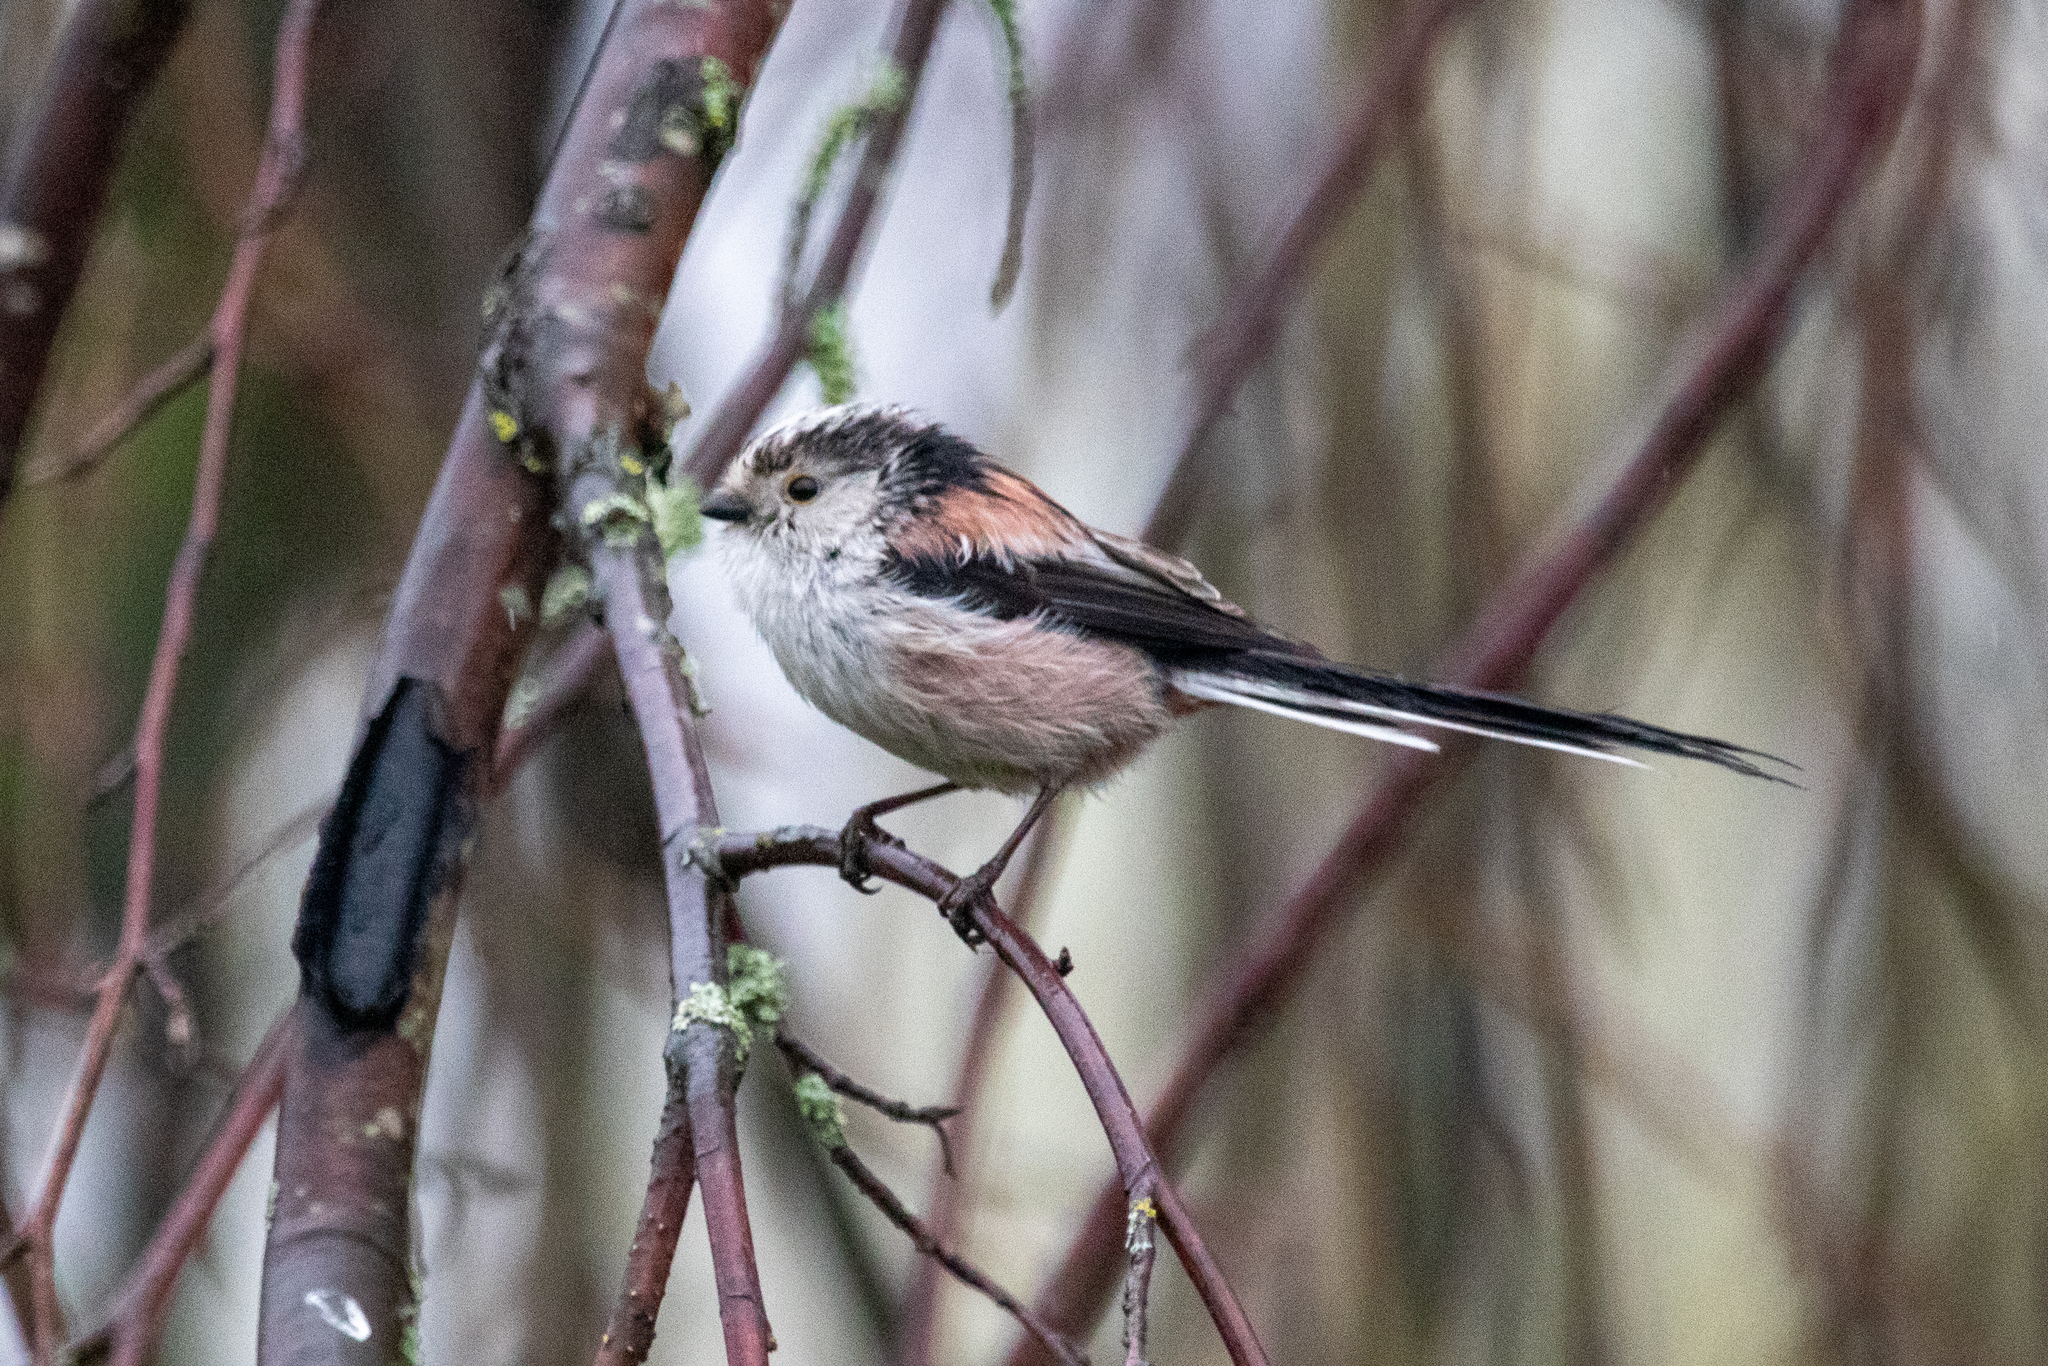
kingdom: Animalia
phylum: Chordata
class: Aves
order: Passeriformes
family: Aegithalidae
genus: Aegithalos
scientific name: Aegithalos caudatus
